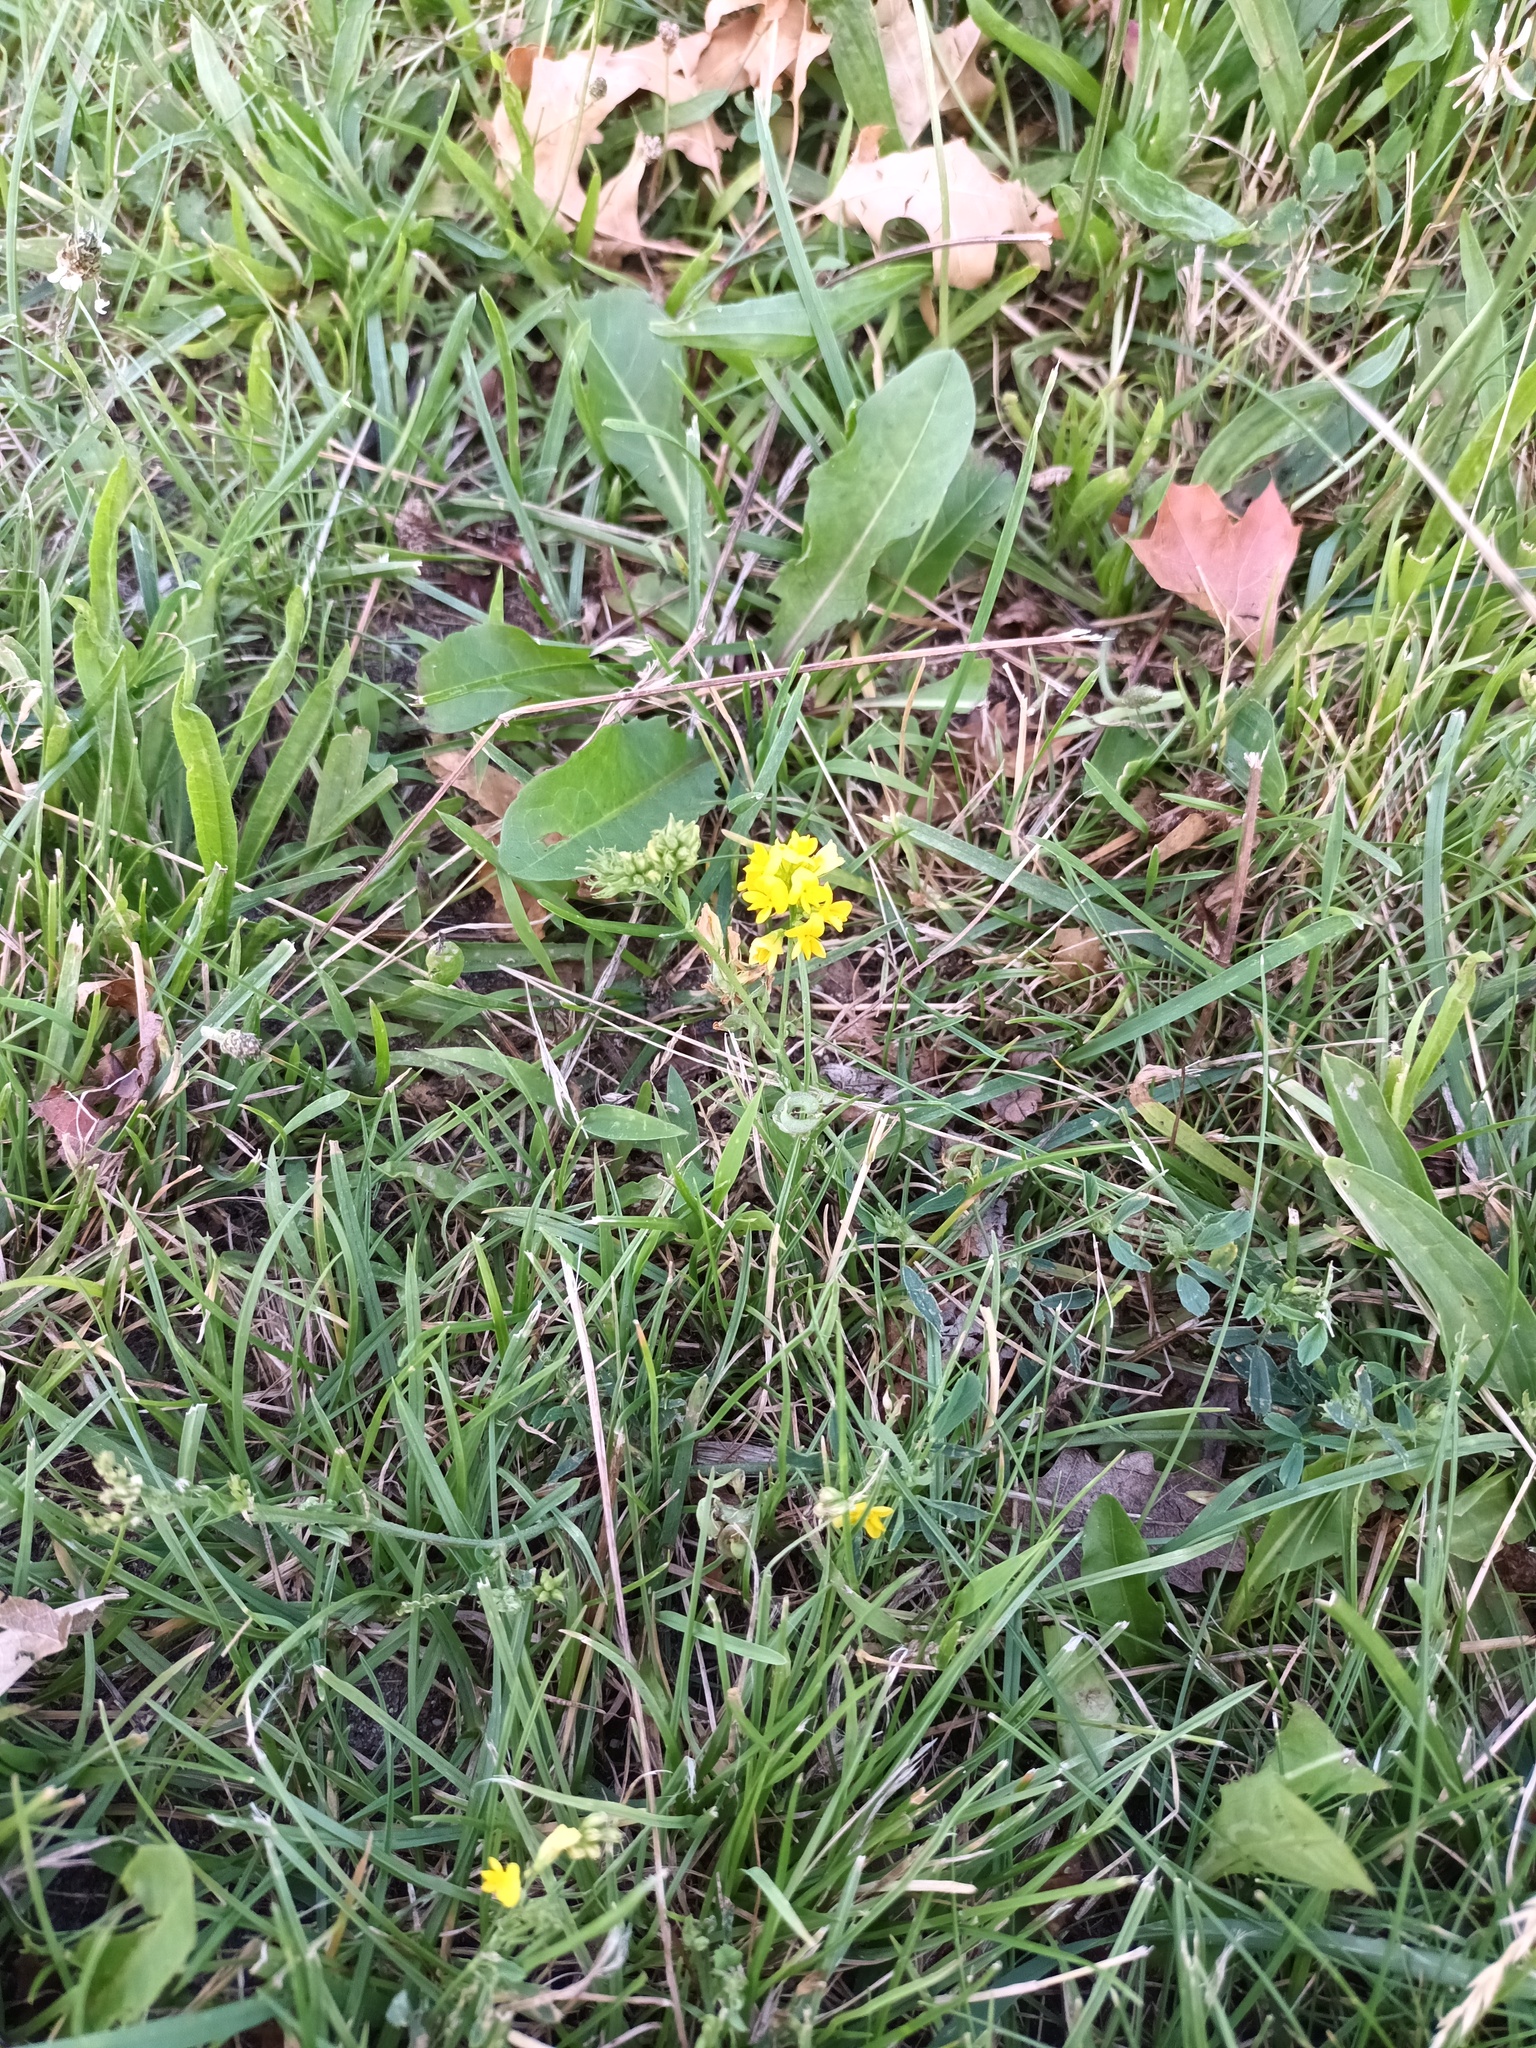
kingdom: Plantae
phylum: Tracheophyta
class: Magnoliopsida
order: Fabales
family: Fabaceae
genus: Medicago
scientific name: Medicago falcata
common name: Sickle medick
